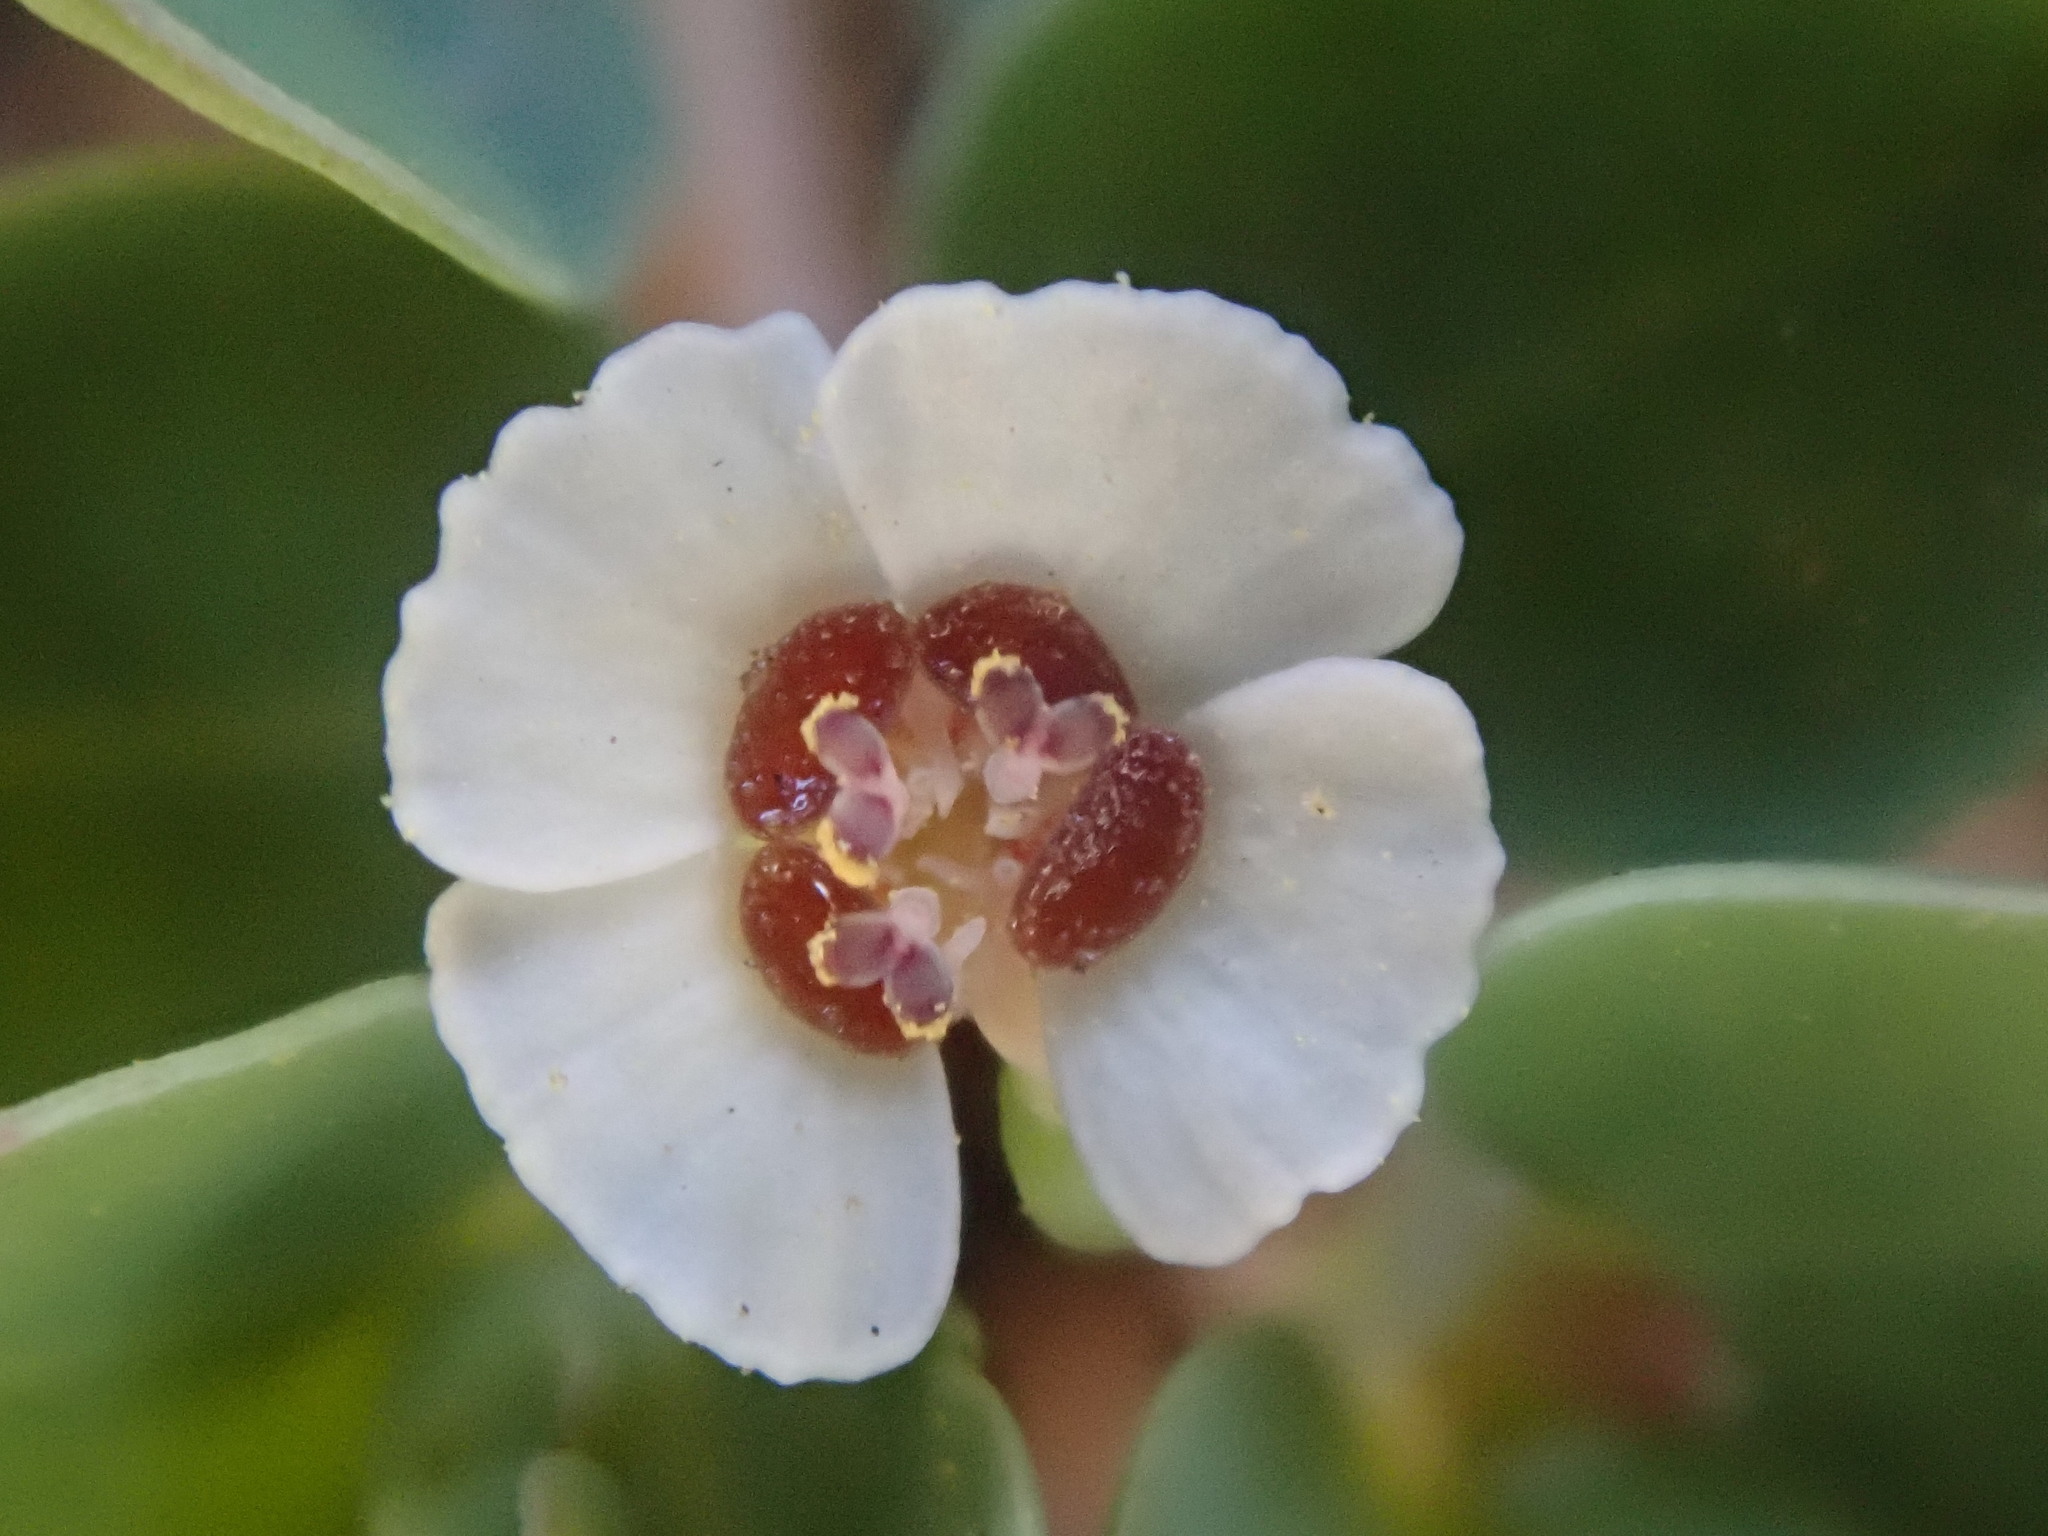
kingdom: Plantae
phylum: Tracheophyta
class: Magnoliopsida
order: Malpighiales
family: Euphorbiaceae
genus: Euphorbia
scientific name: Euphorbia albomarginata
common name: Whitemargin sandmat
